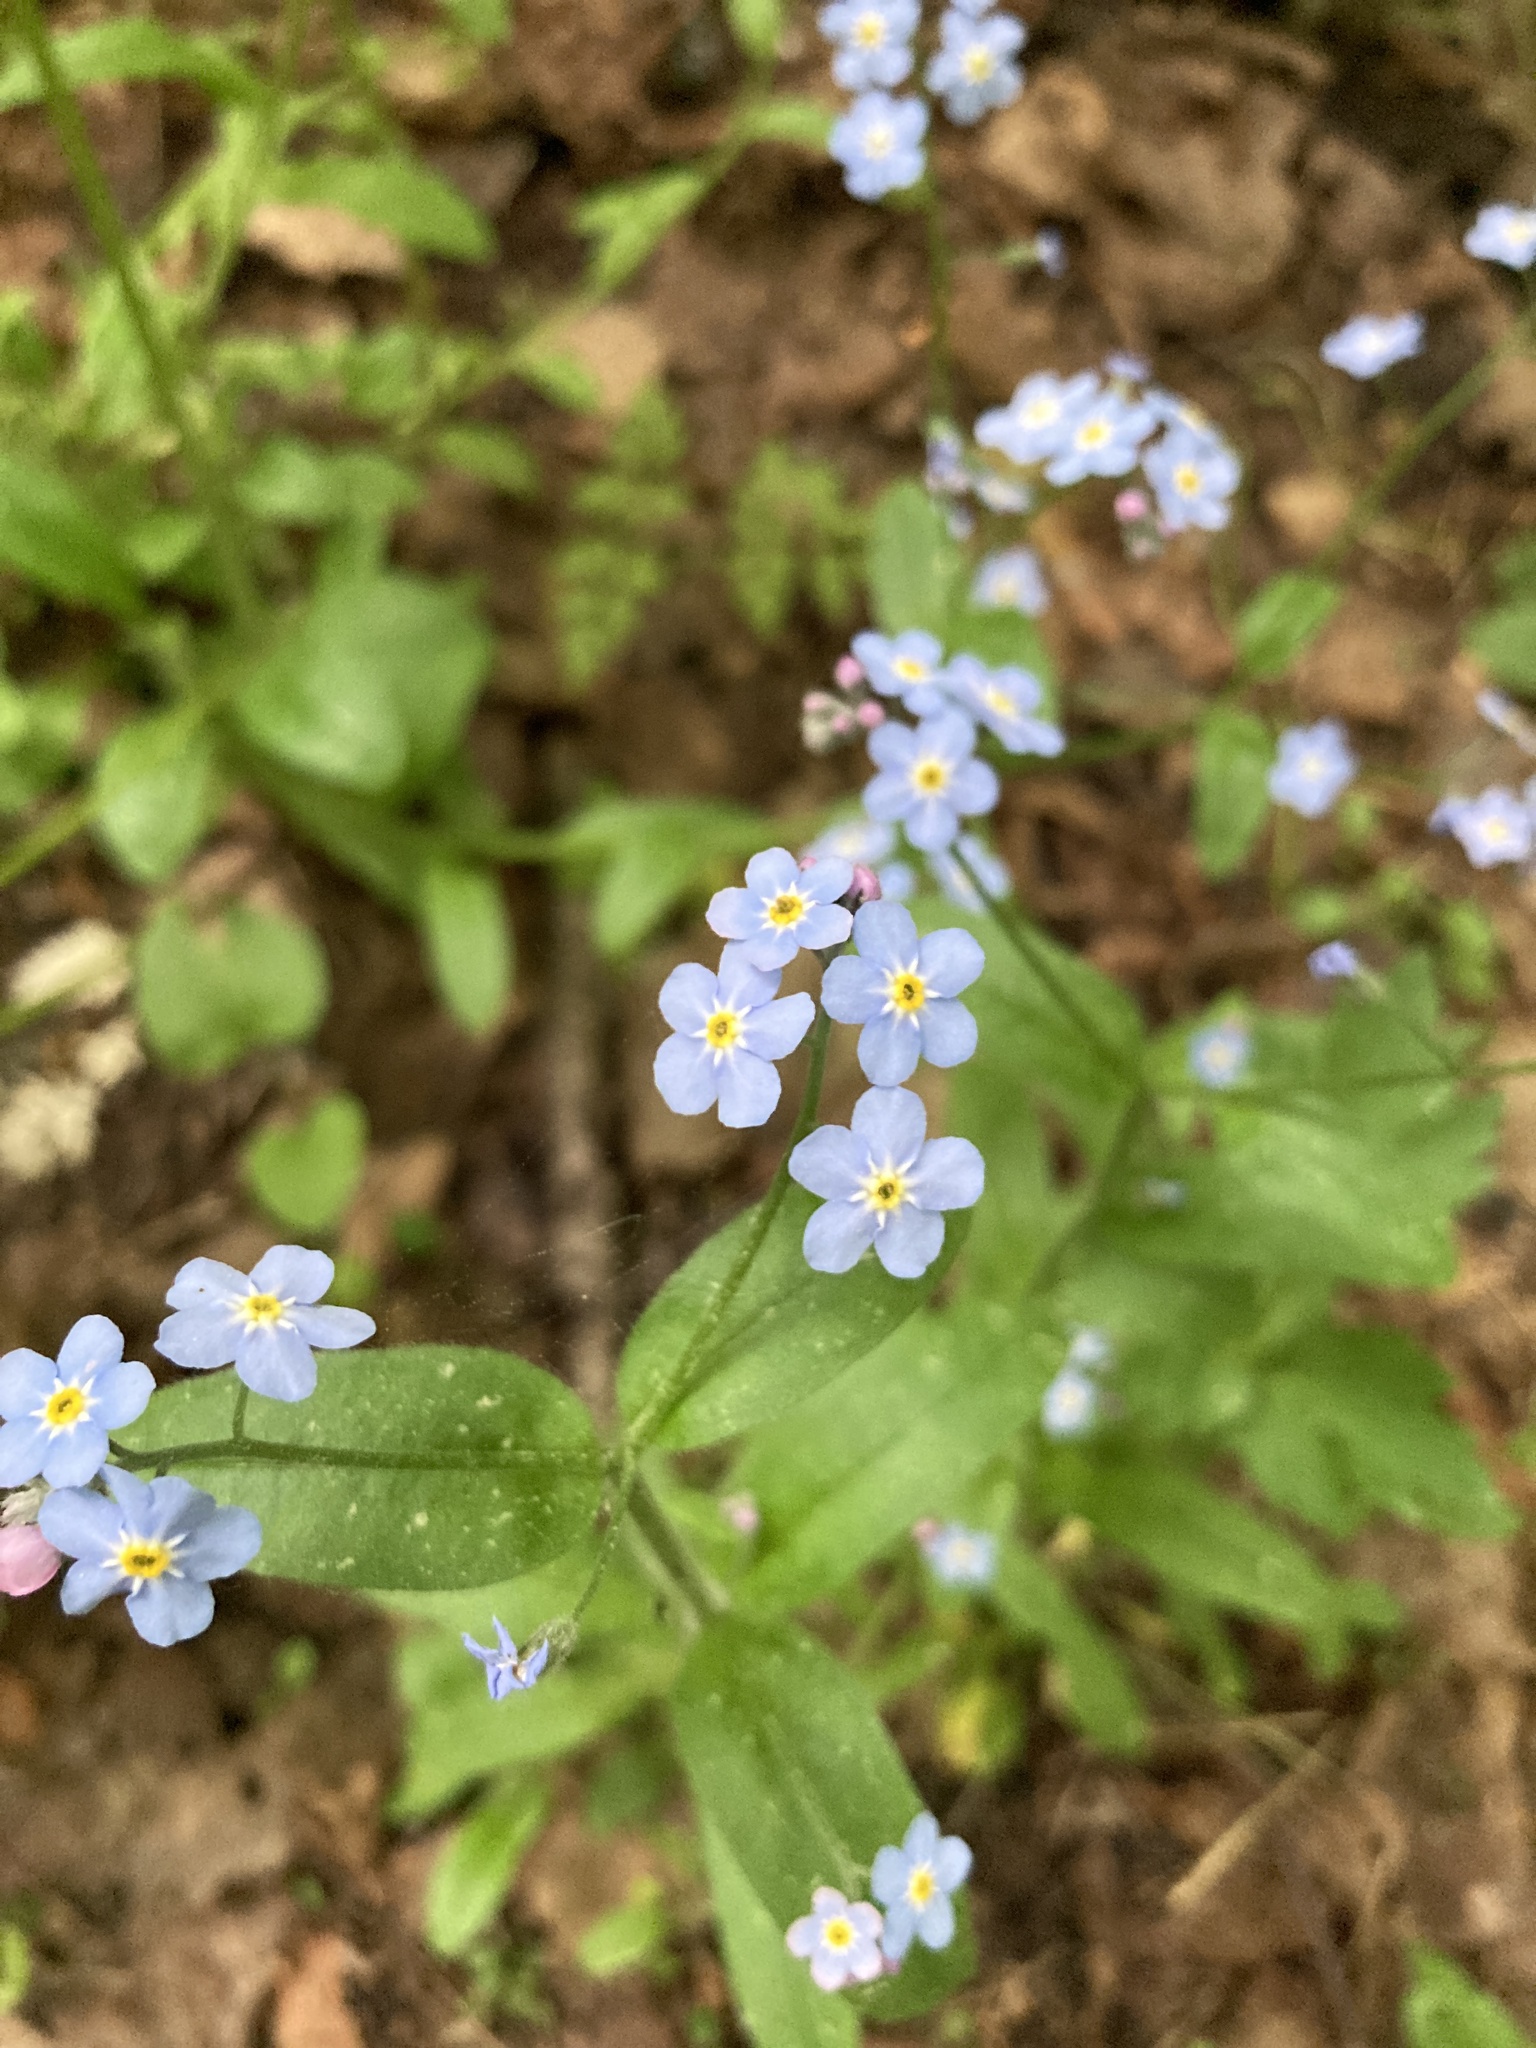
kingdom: Plantae
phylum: Tracheophyta
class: Magnoliopsida
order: Boraginales
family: Boraginaceae
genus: Myosotis
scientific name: Myosotis sylvatica
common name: Wood forget-me-not
